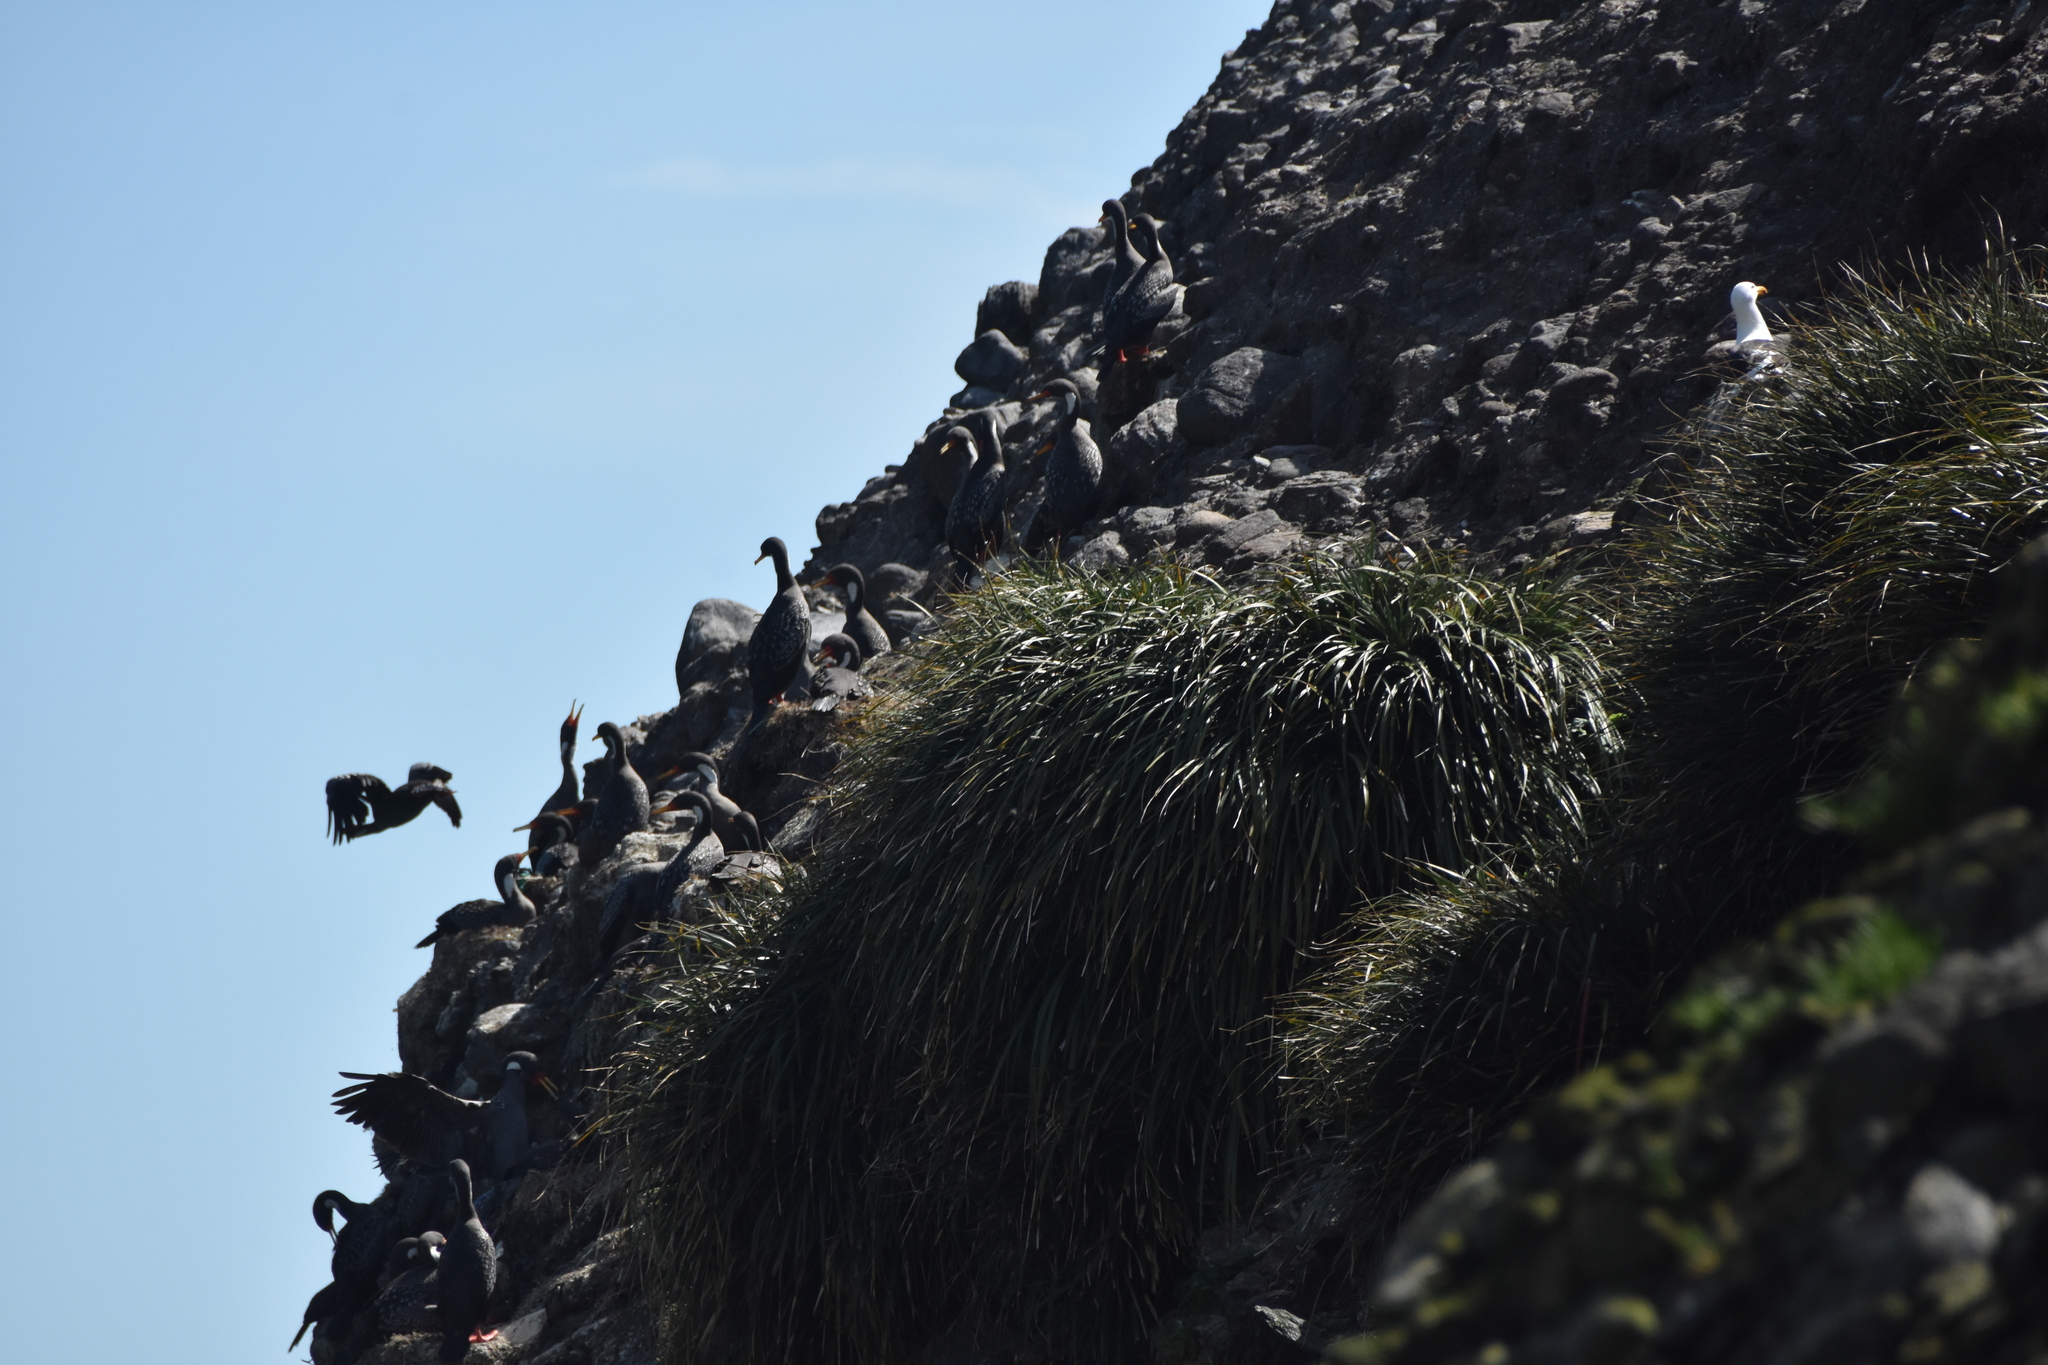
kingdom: Animalia
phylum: Chordata
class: Aves
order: Suliformes
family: Phalacrocoracidae
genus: Phalacrocorax
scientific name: Phalacrocorax gaimardi
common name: Red-legged cormorant
